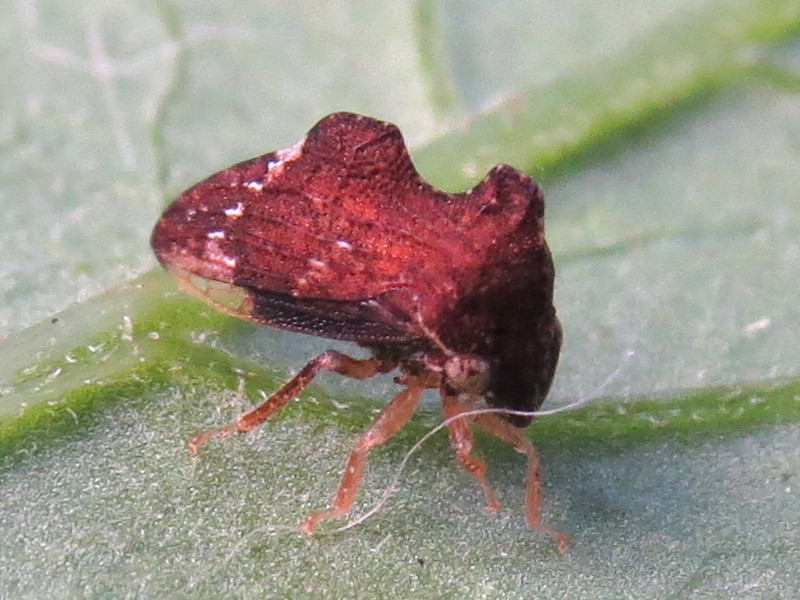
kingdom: Animalia
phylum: Arthropoda
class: Insecta
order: Hemiptera
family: Membracidae
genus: Entylia
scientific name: Entylia carinata
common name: Keeled treehopper
